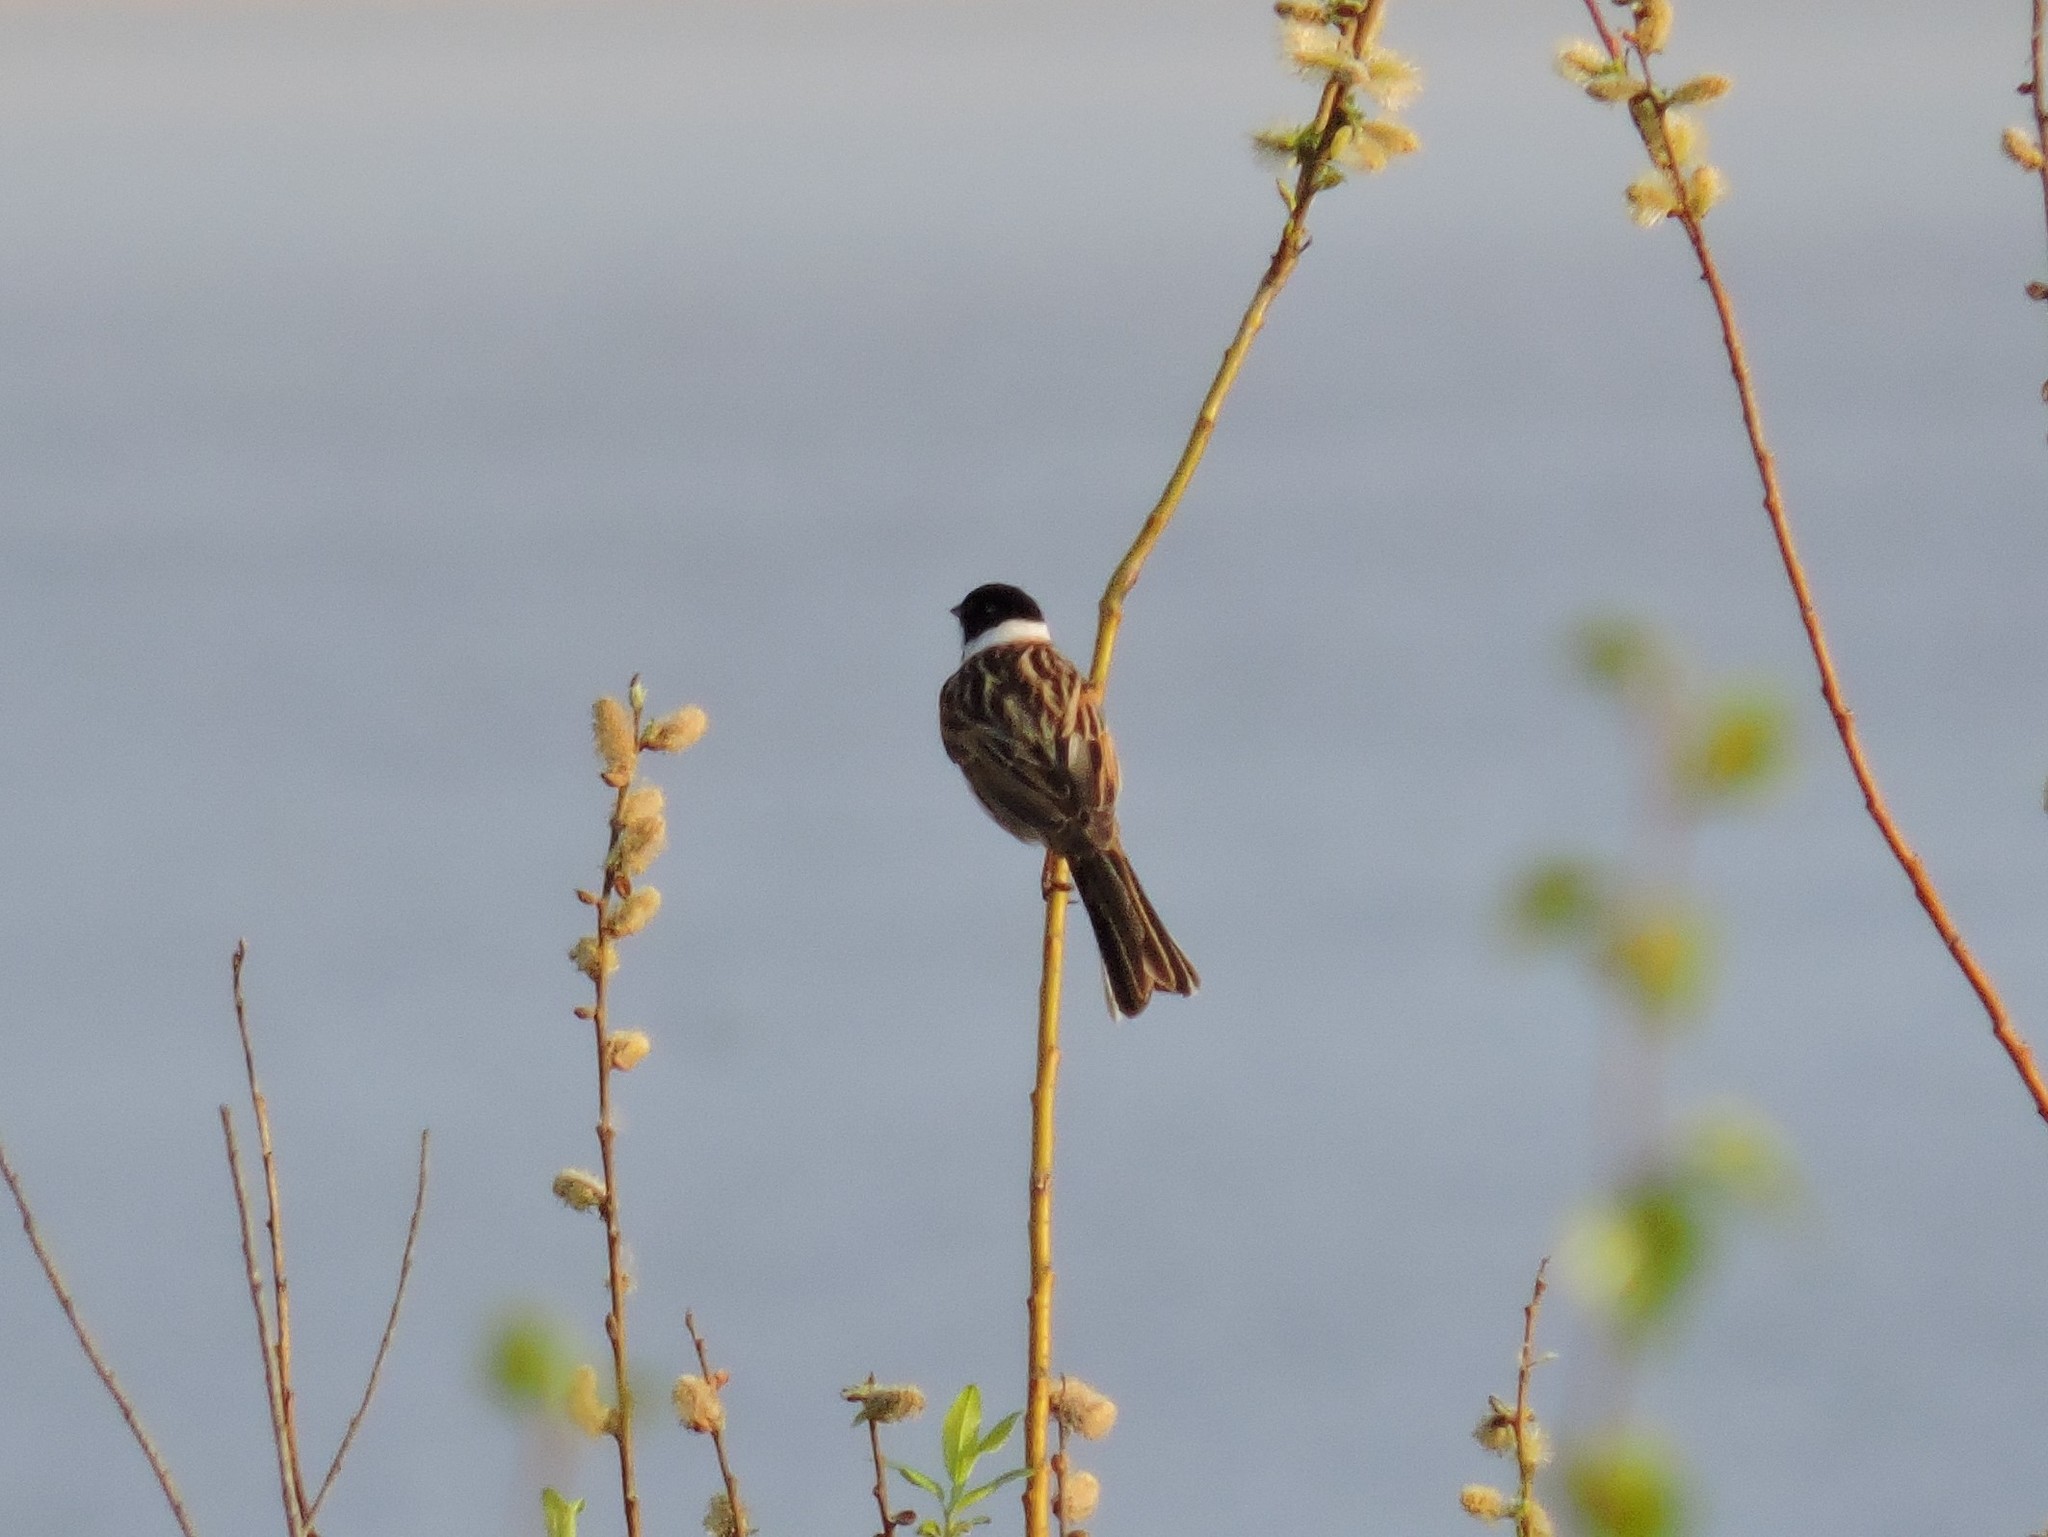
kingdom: Animalia
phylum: Chordata
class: Aves
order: Passeriformes
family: Emberizidae
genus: Emberiza
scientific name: Emberiza schoeniclus
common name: Reed bunting
